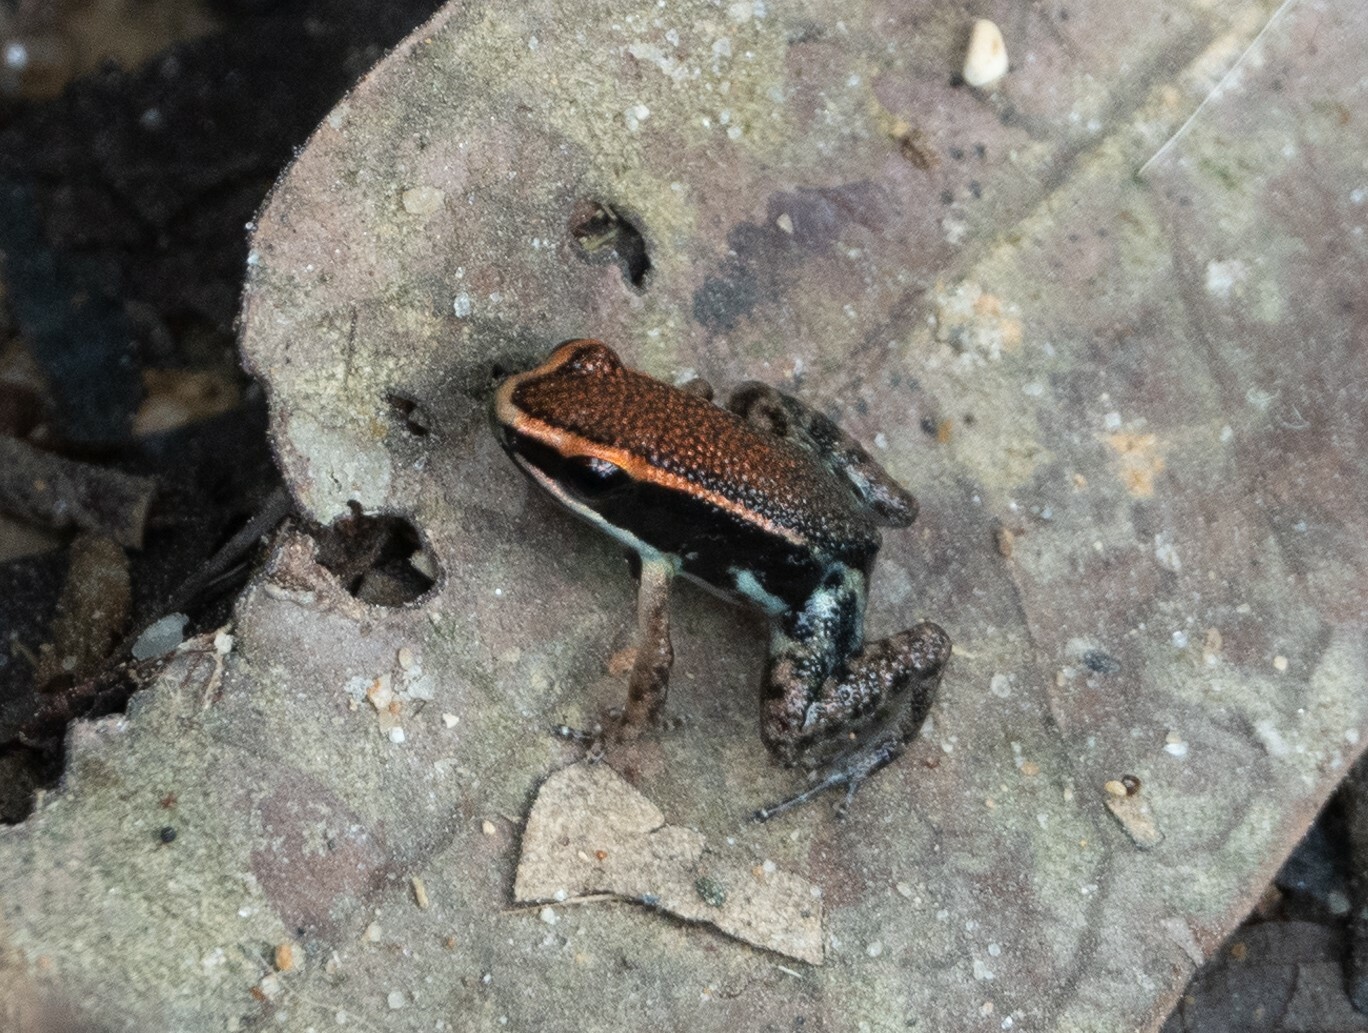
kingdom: Animalia
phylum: Chordata
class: Amphibia
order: Anura
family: Aromobatidae
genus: Allobates
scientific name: Allobates zaparo
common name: Zaparo's poison frog
